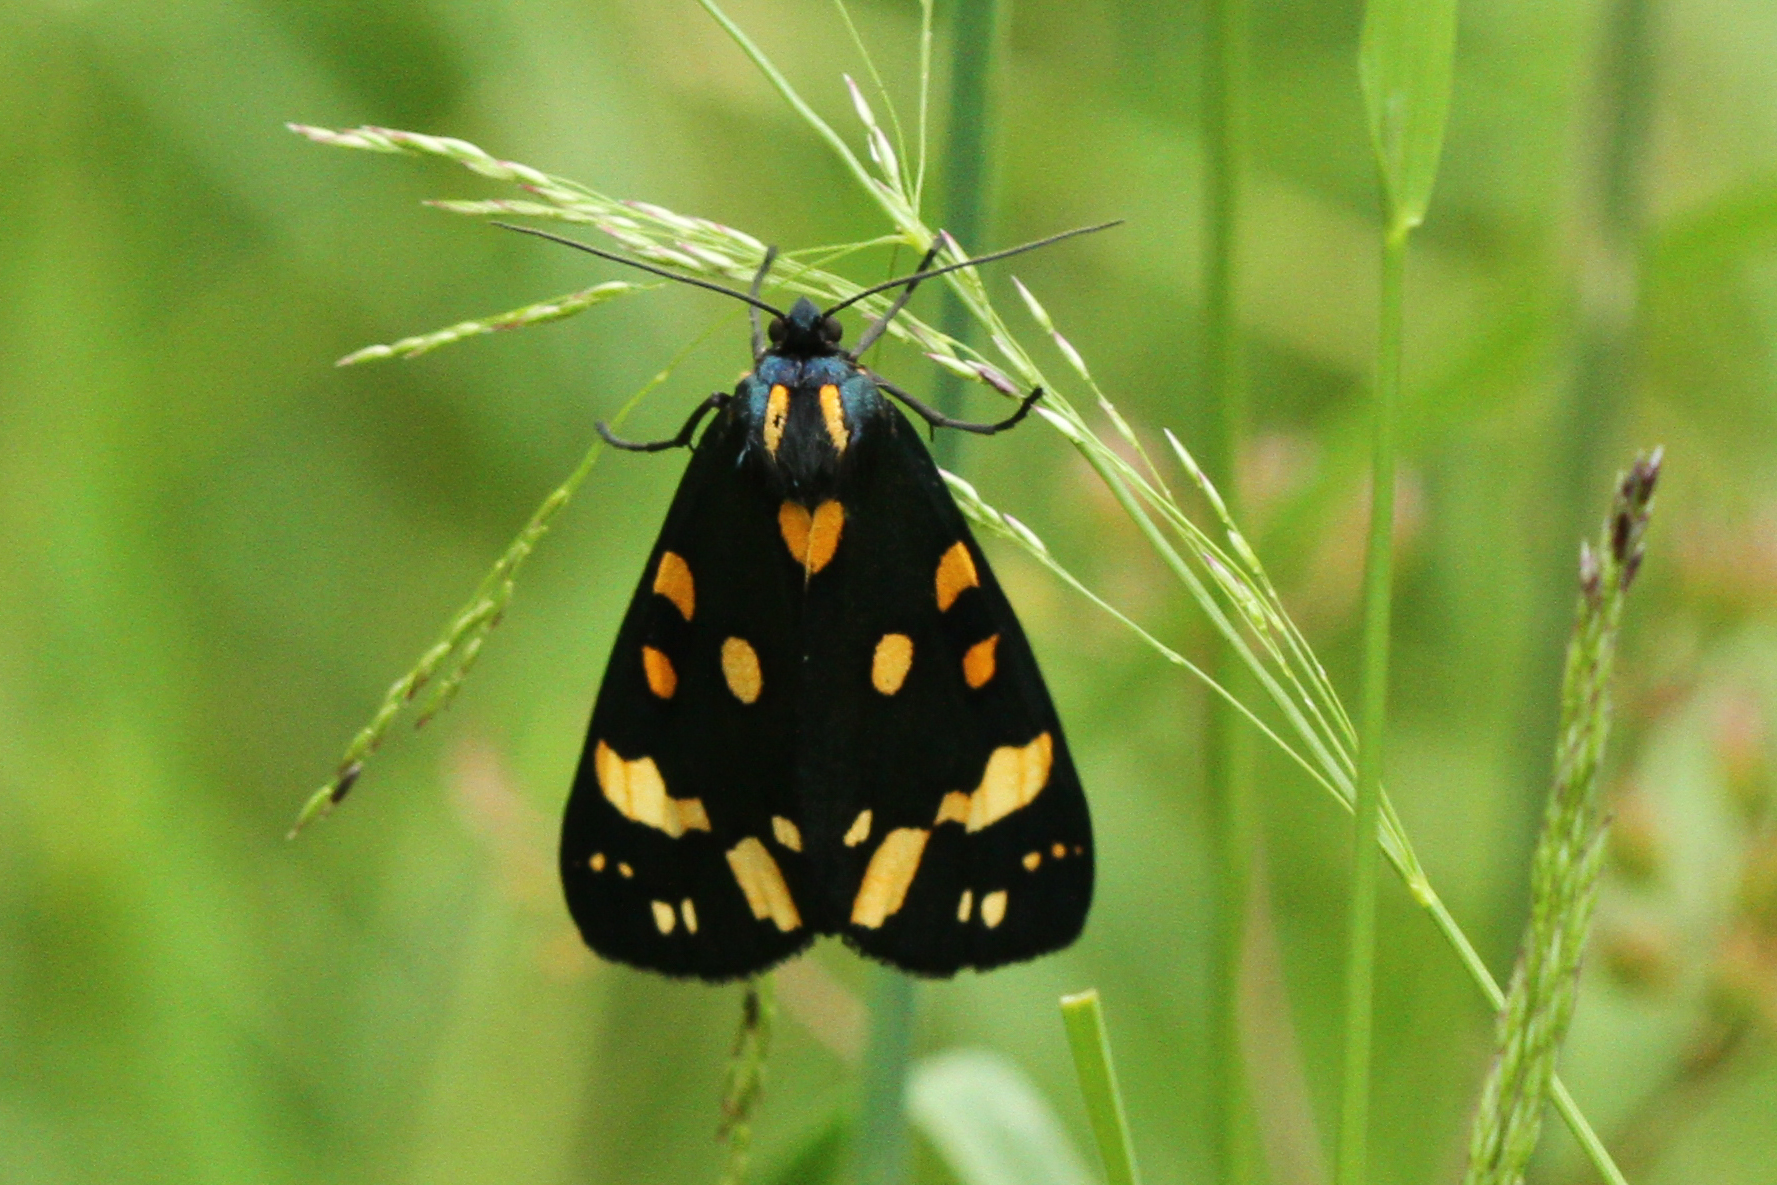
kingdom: Animalia
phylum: Arthropoda
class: Insecta
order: Lepidoptera
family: Erebidae
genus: Callimorpha
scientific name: Callimorpha dominula
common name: Scarlet tiger
